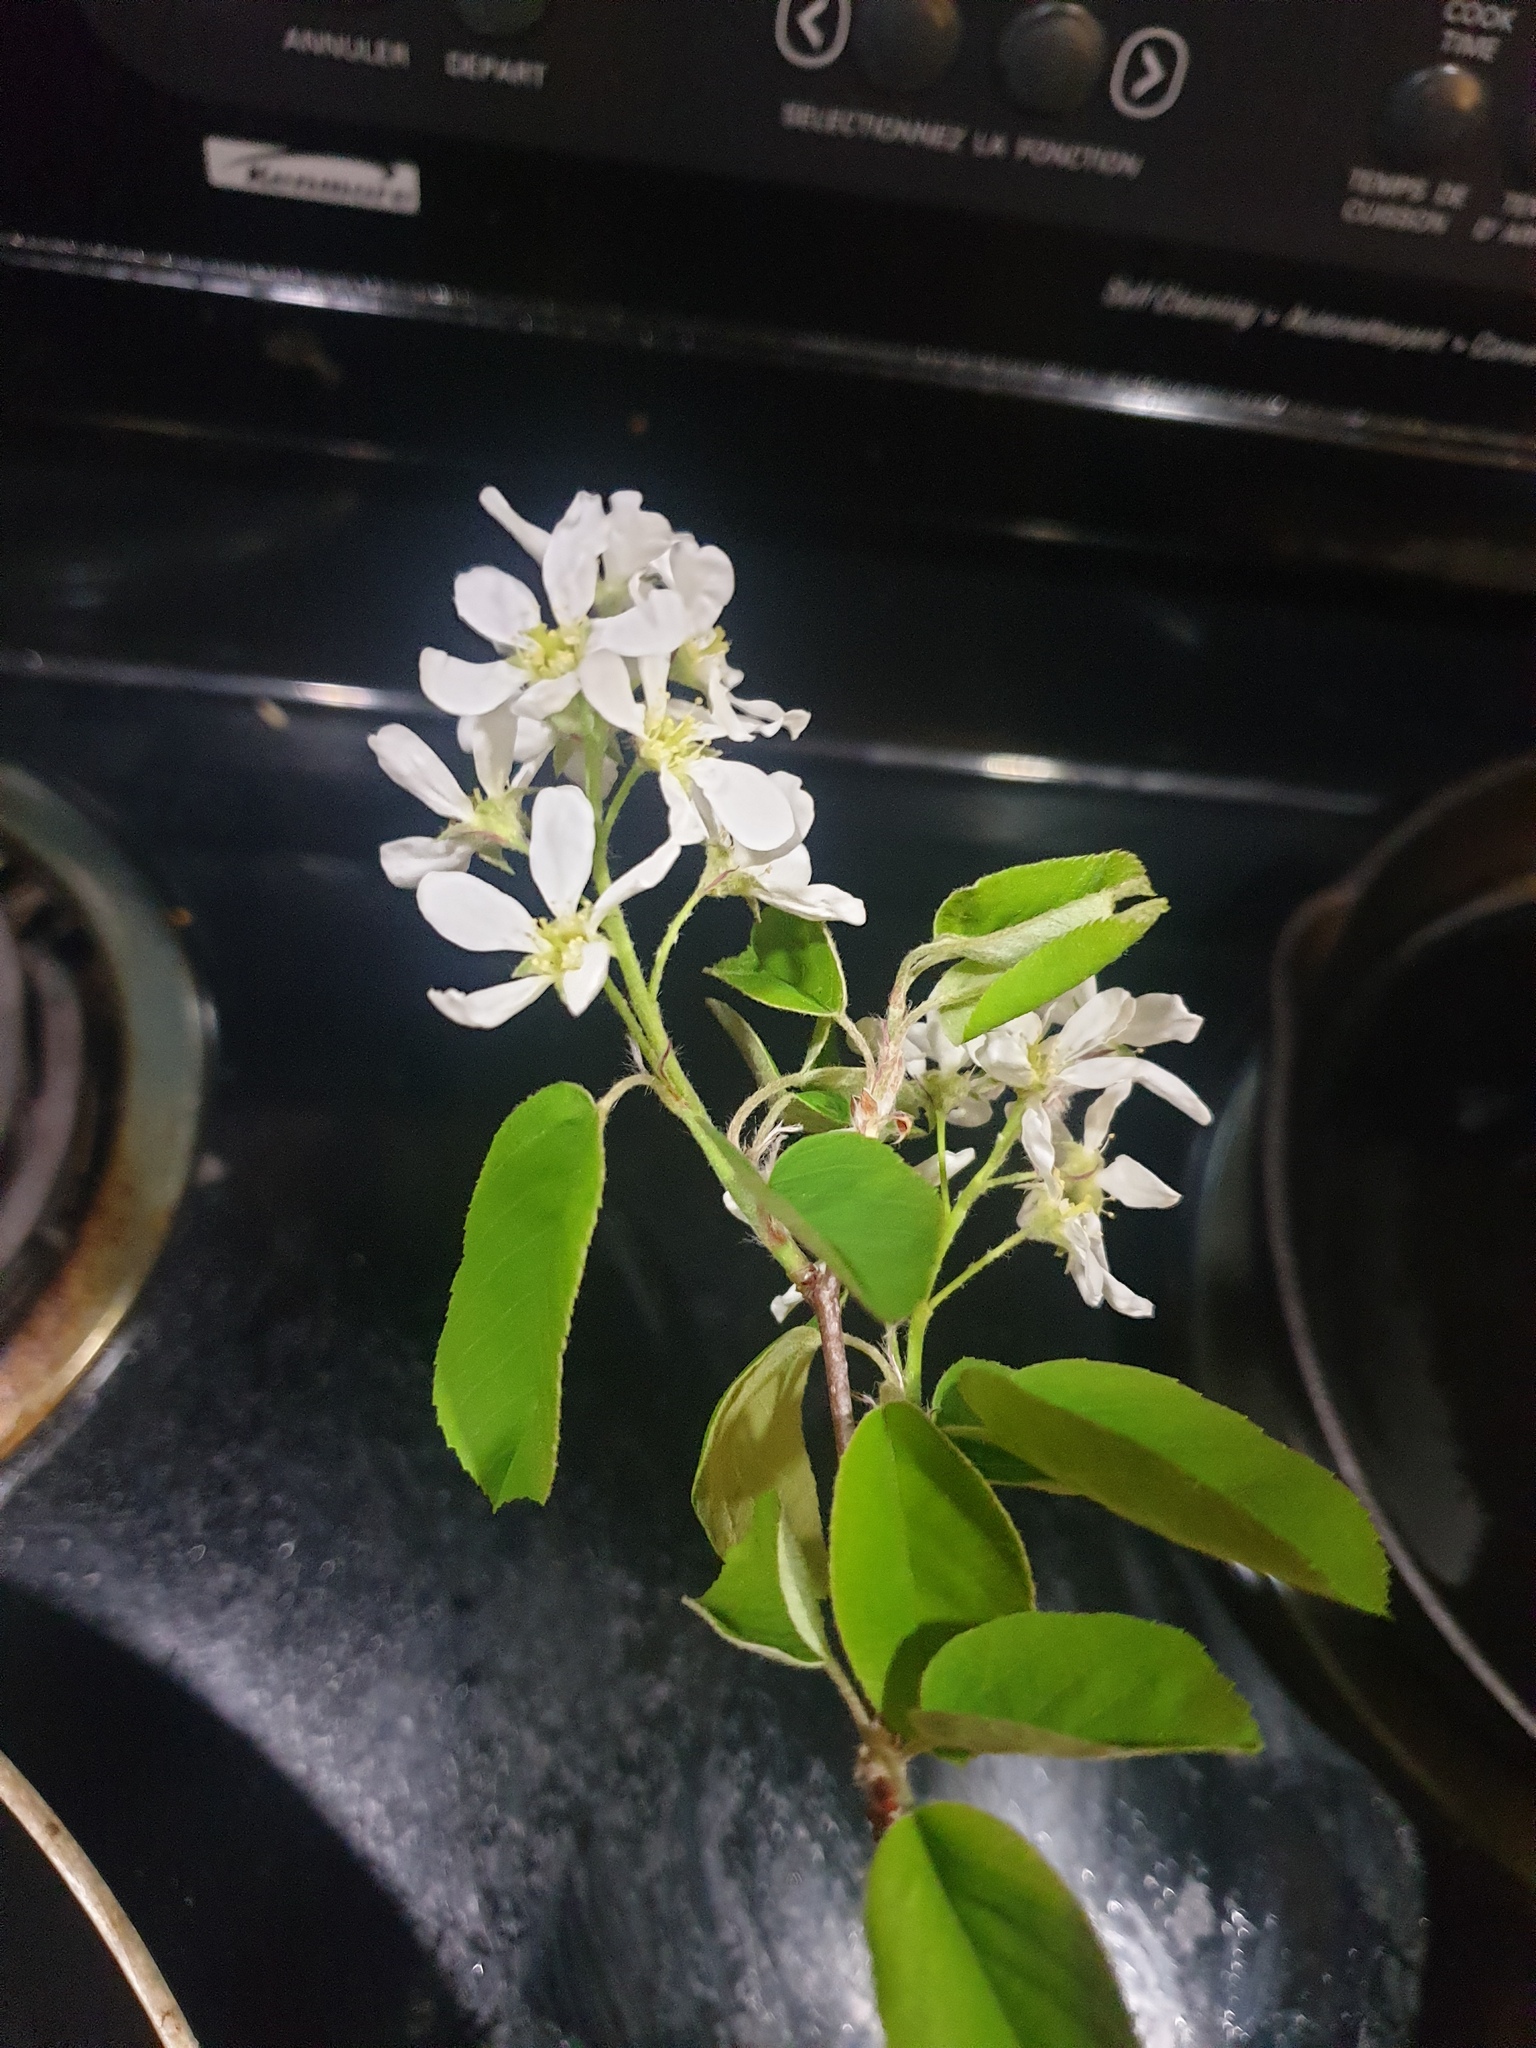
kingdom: Plantae
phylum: Tracheophyta
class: Magnoliopsida
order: Rosales
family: Rosaceae
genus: Amelanchier
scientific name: Amelanchier
